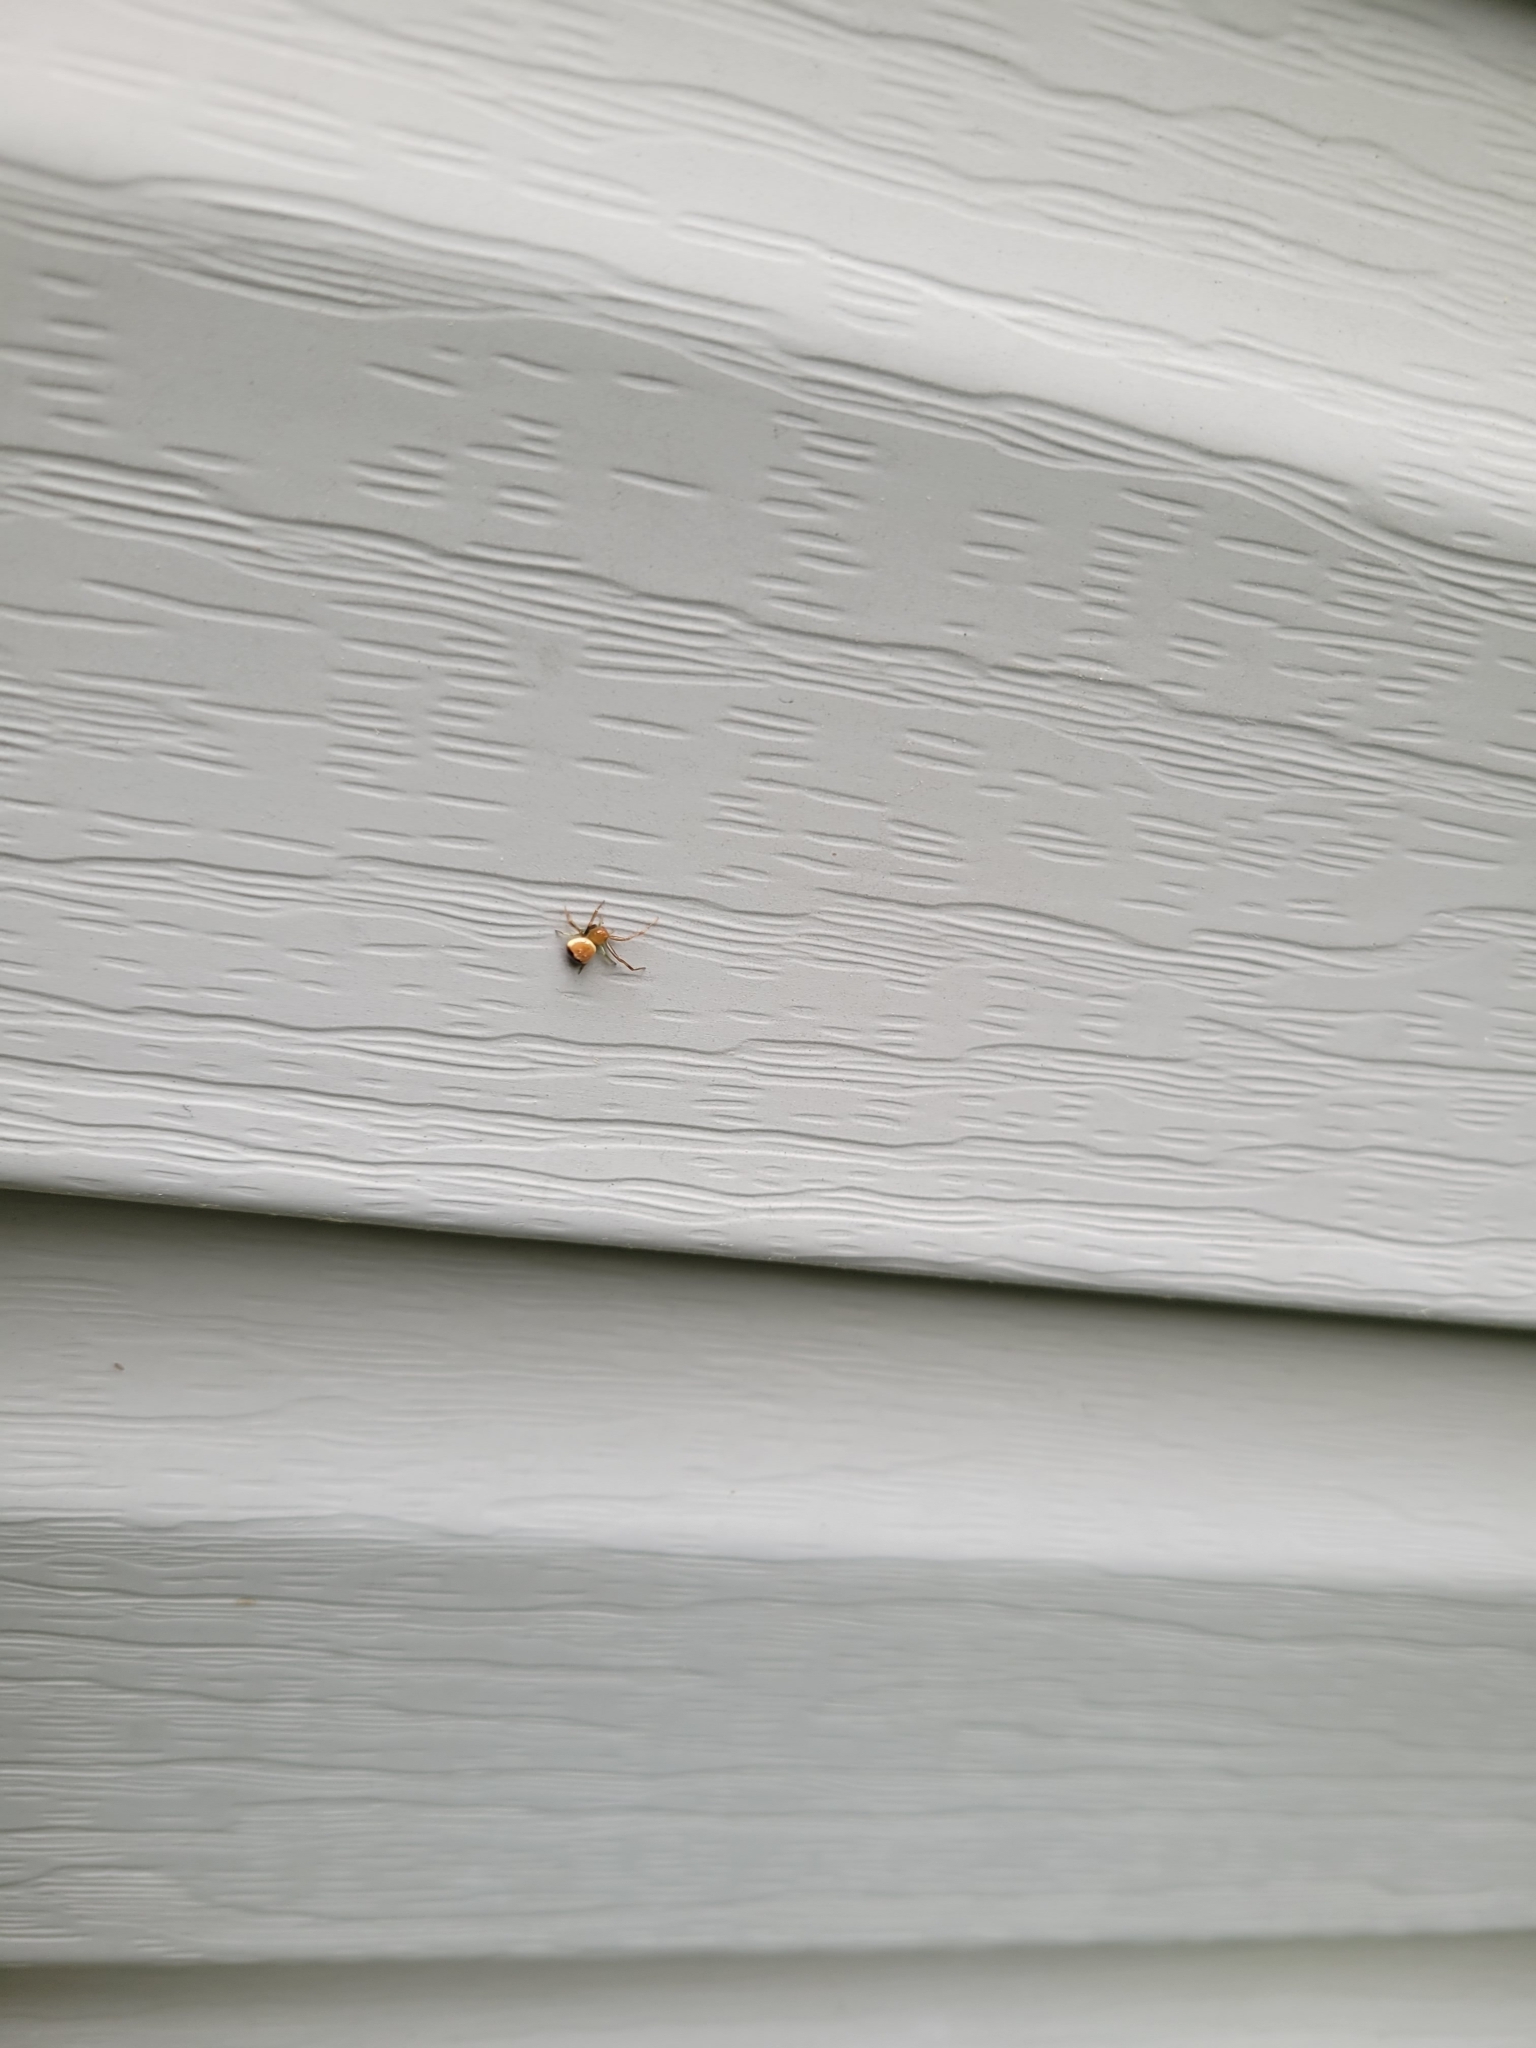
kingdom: Animalia
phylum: Arthropoda
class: Arachnida
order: Araneae
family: Thomisidae
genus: Synema
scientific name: Synema parvulum
